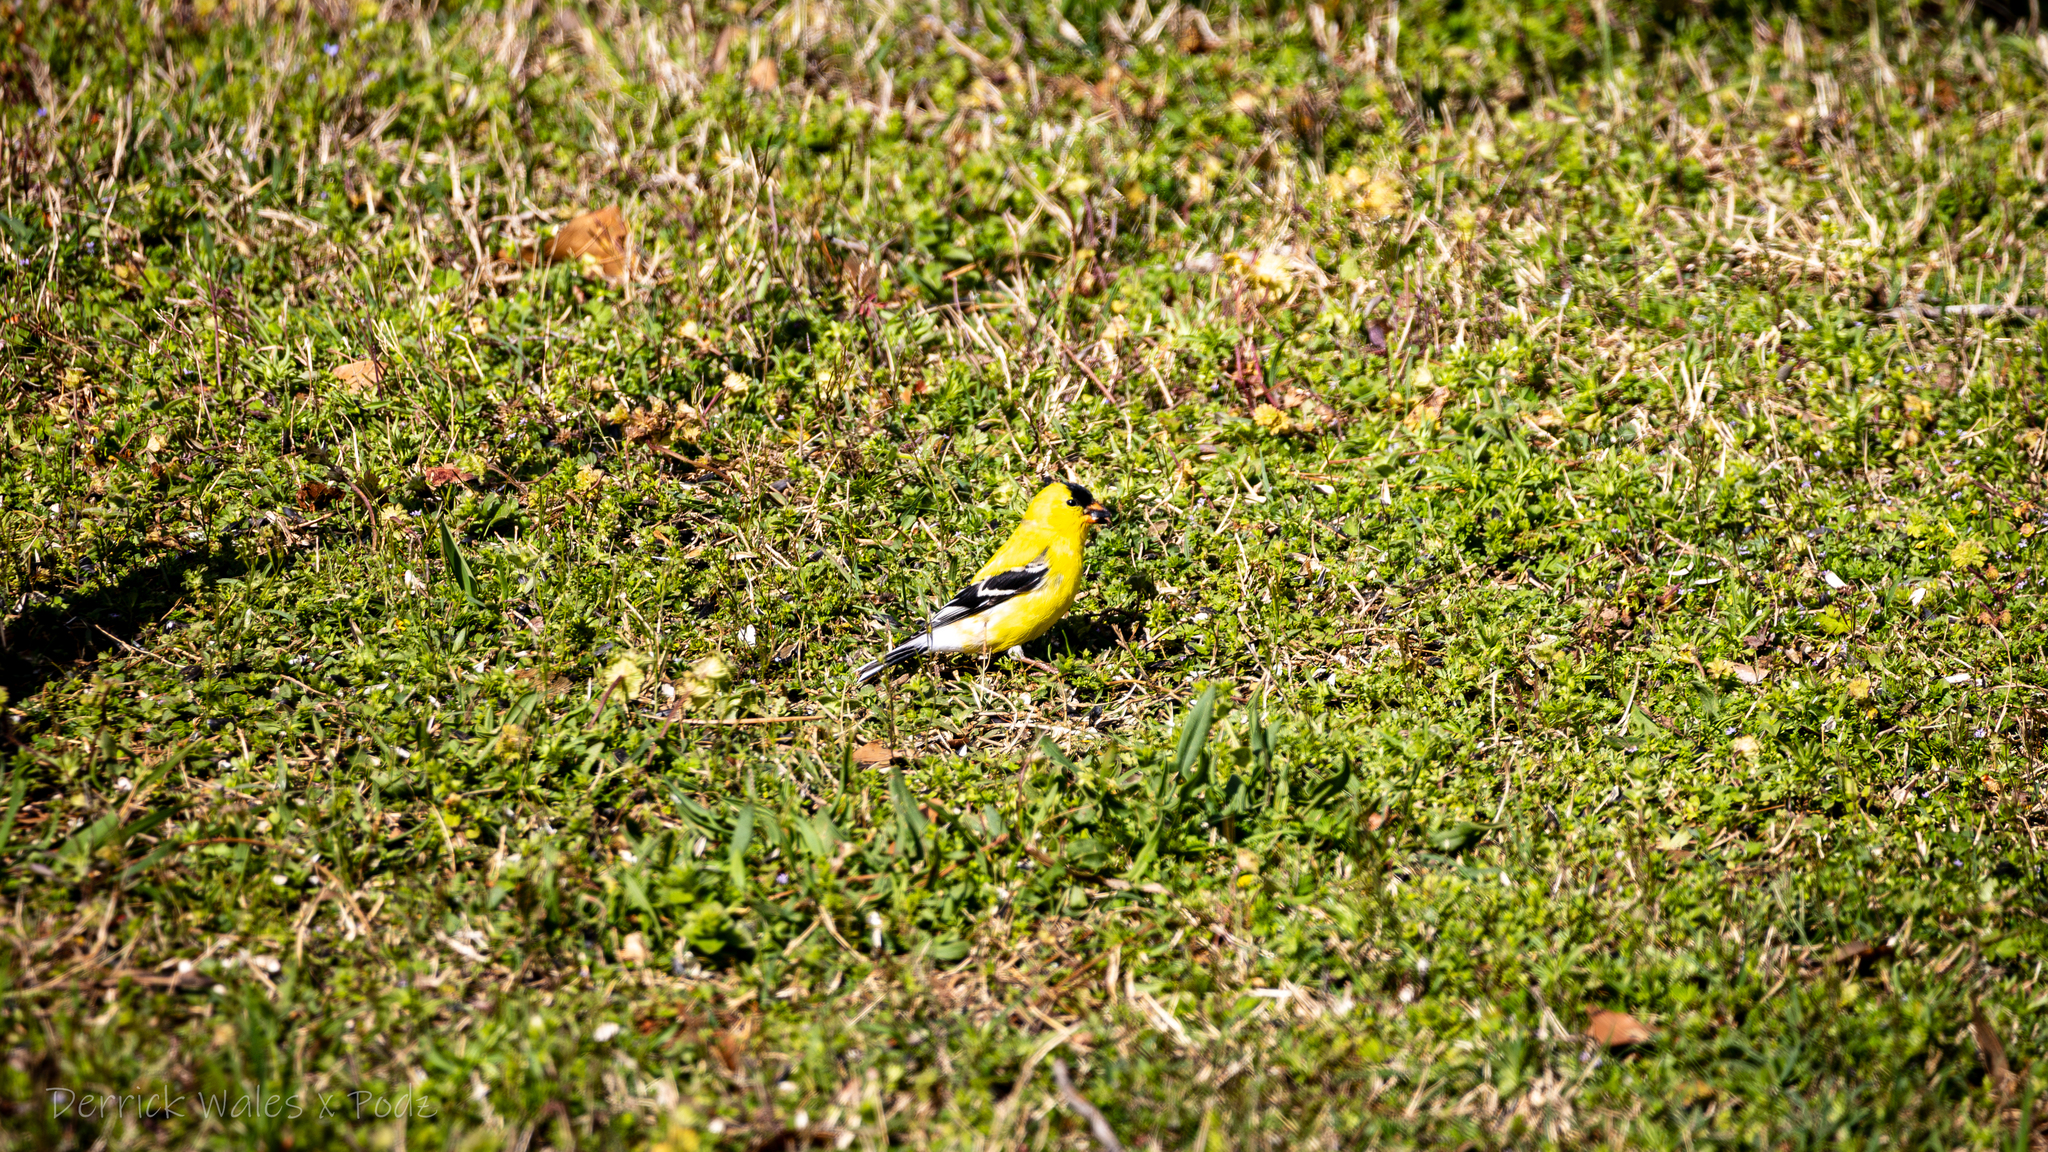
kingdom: Animalia
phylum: Chordata
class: Aves
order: Passeriformes
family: Fringillidae
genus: Spinus
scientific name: Spinus tristis
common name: American goldfinch
